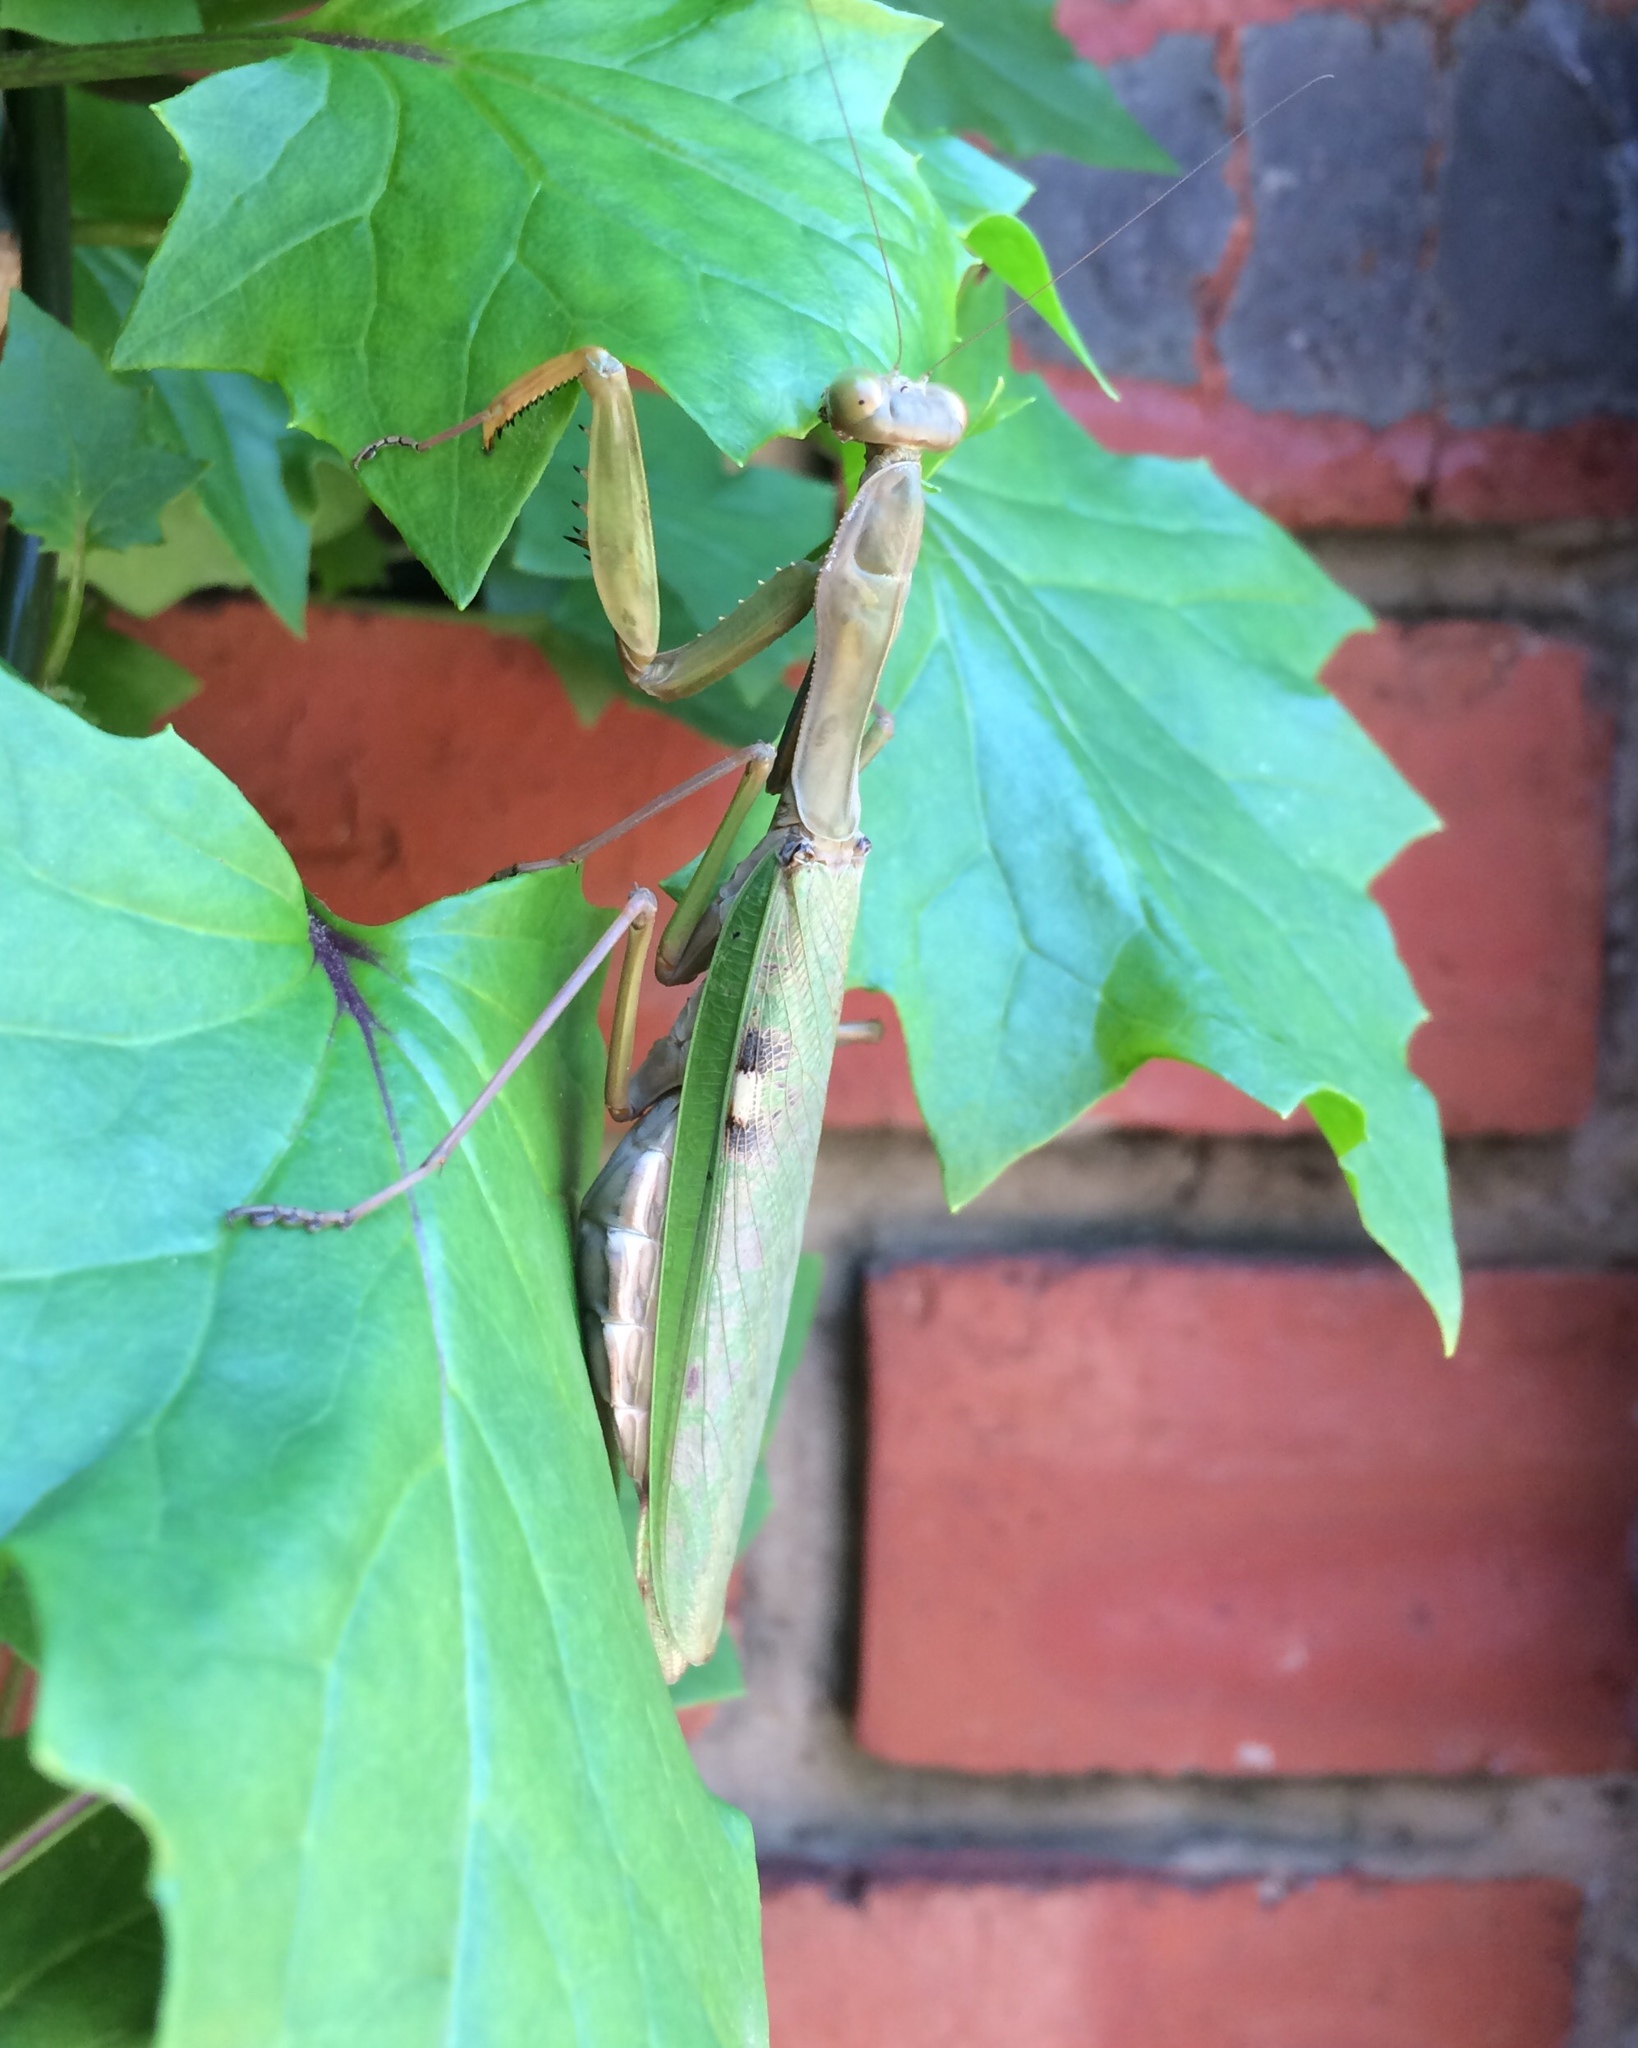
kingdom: Animalia
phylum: Arthropoda
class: Insecta
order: Mantodea
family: Mantidae
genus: Polyspilota
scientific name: Polyspilota aeruginosa
